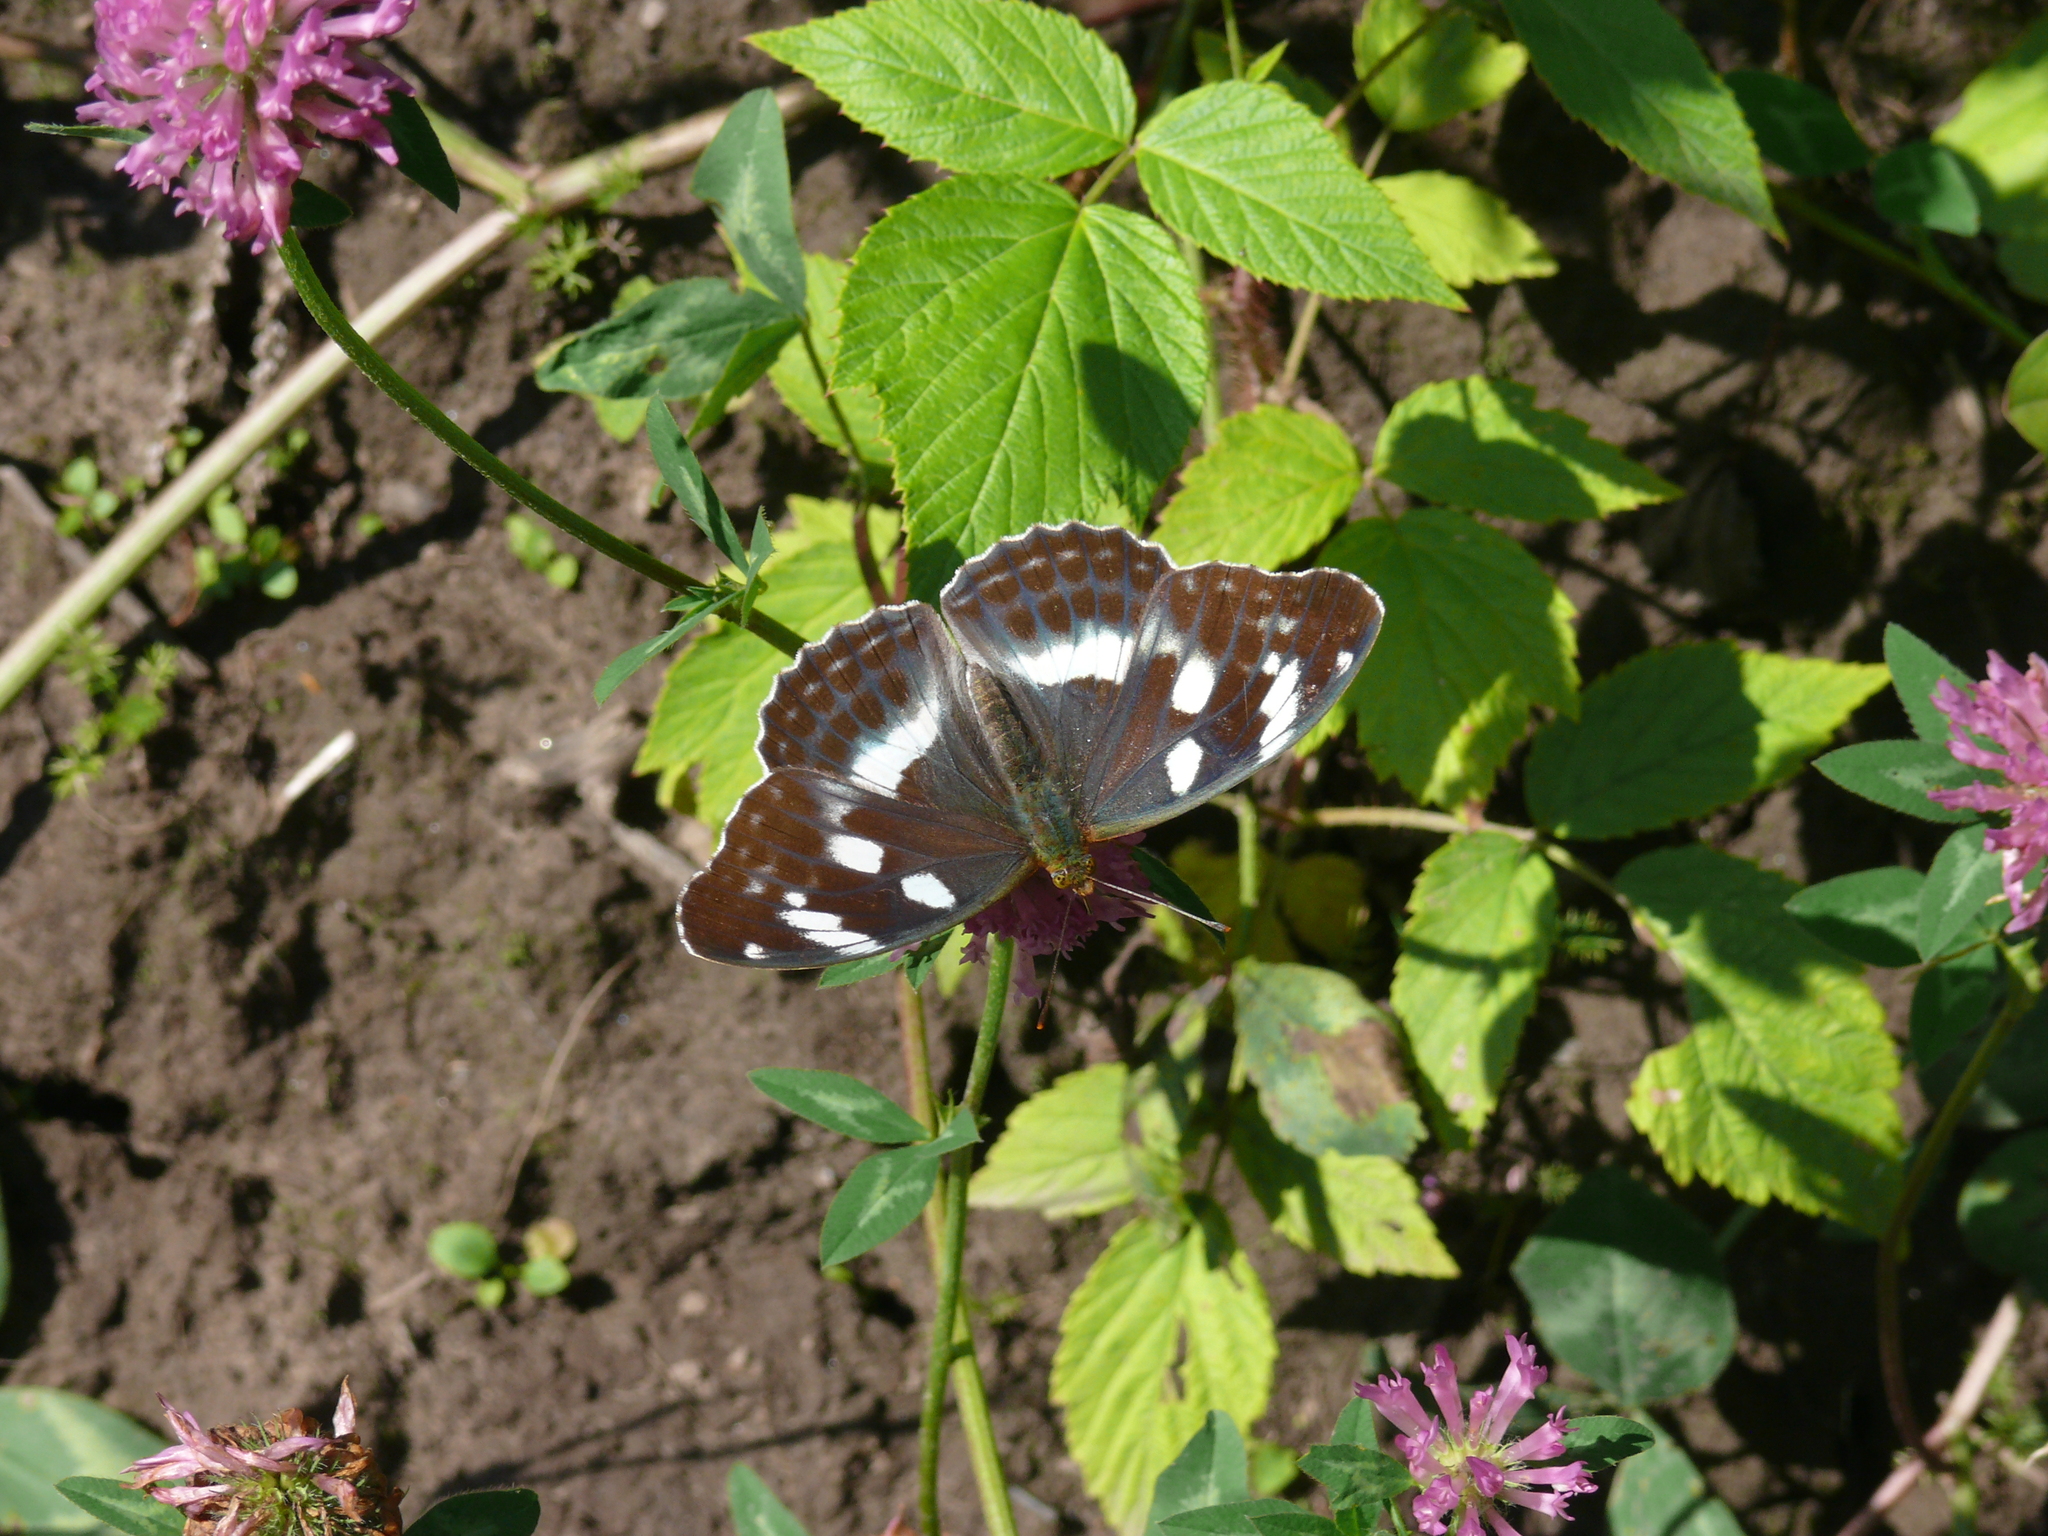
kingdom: Animalia
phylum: Arthropoda
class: Insecta
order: Lepidoptera
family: Nymphalidae
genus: Damora
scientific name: Damora sagana
